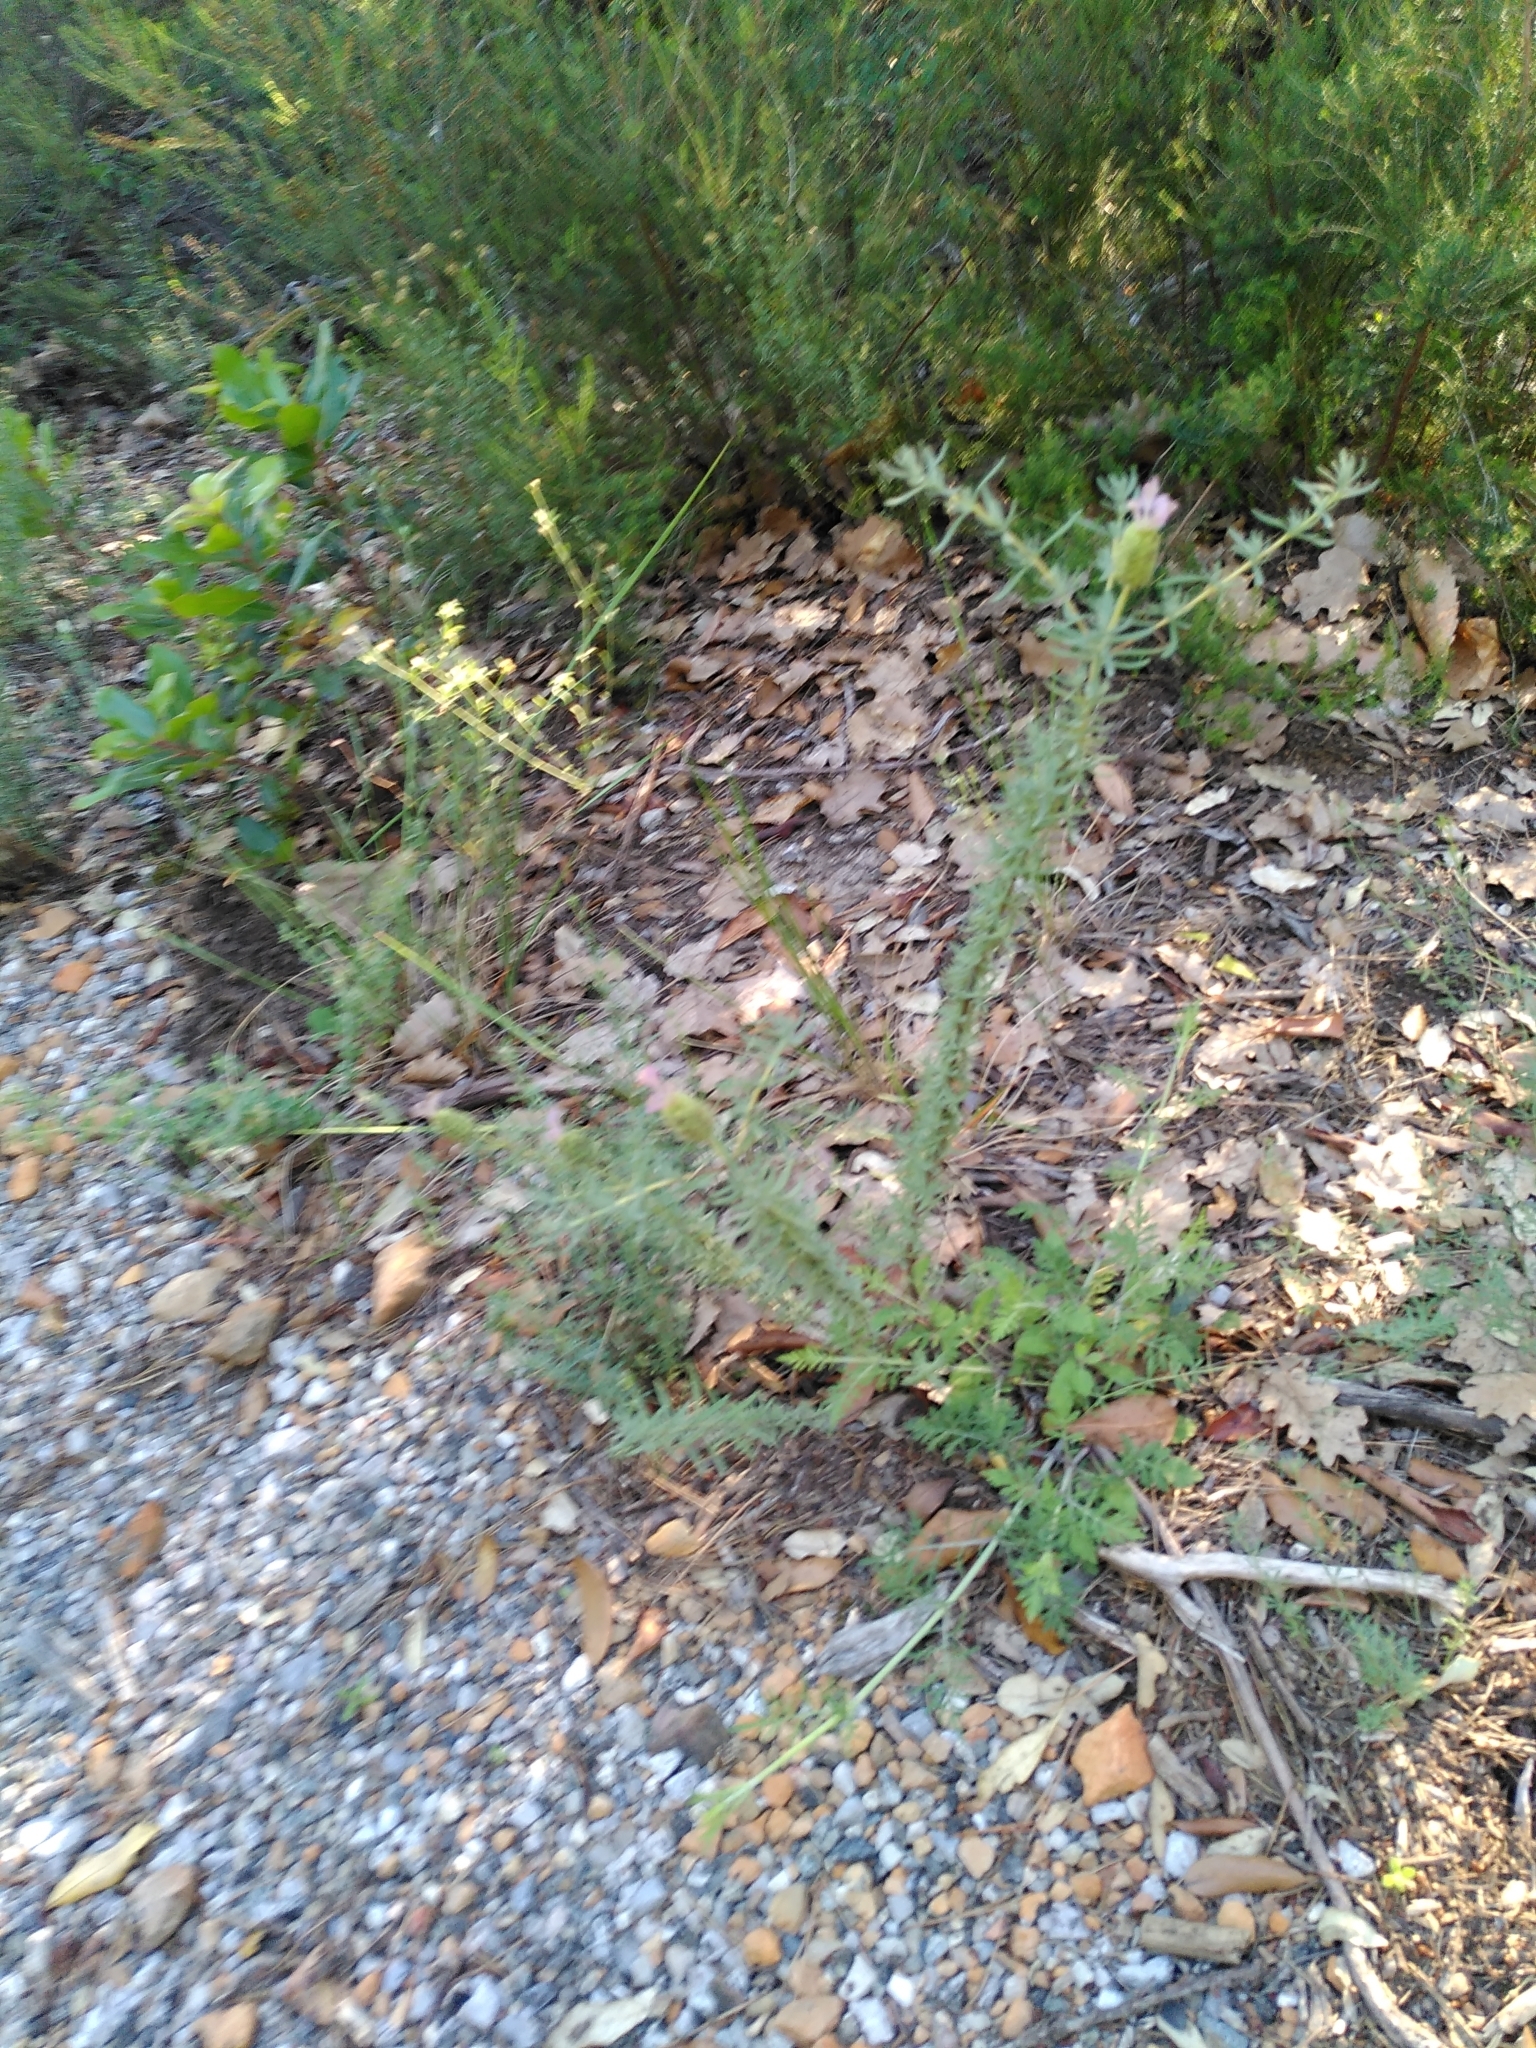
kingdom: Plantae
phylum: Tracheophyta
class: Magnoliopsida
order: Lamiales
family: Lamiaceae
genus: Lavandula
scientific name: Lavandula stoechas
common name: French lavender
